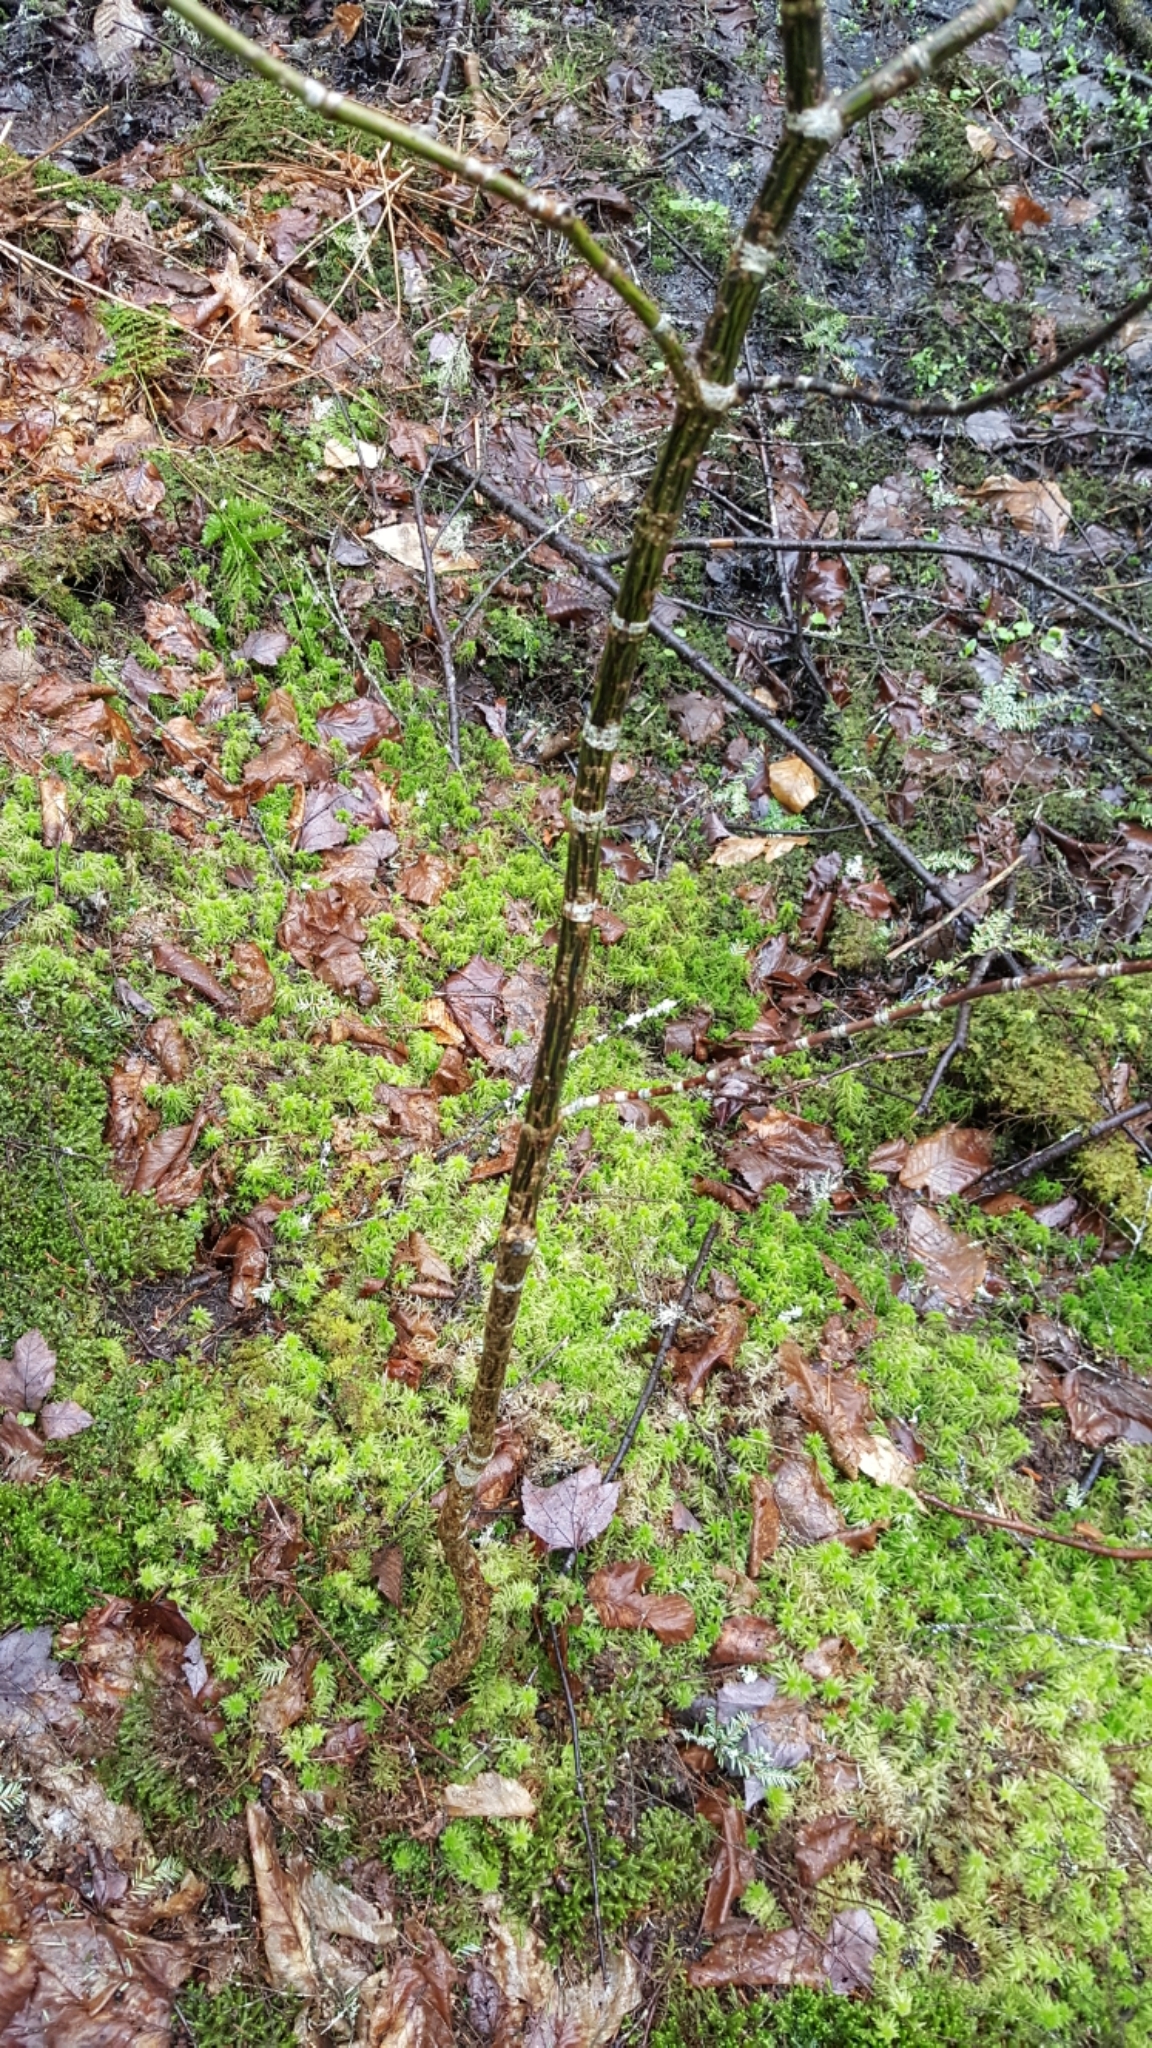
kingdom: Plantae
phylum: Tracheophyta
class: Magnoliopsida
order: Sapindales
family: Sapindaceae
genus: Acer
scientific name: Acer pensylvanicum
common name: Moosewood
